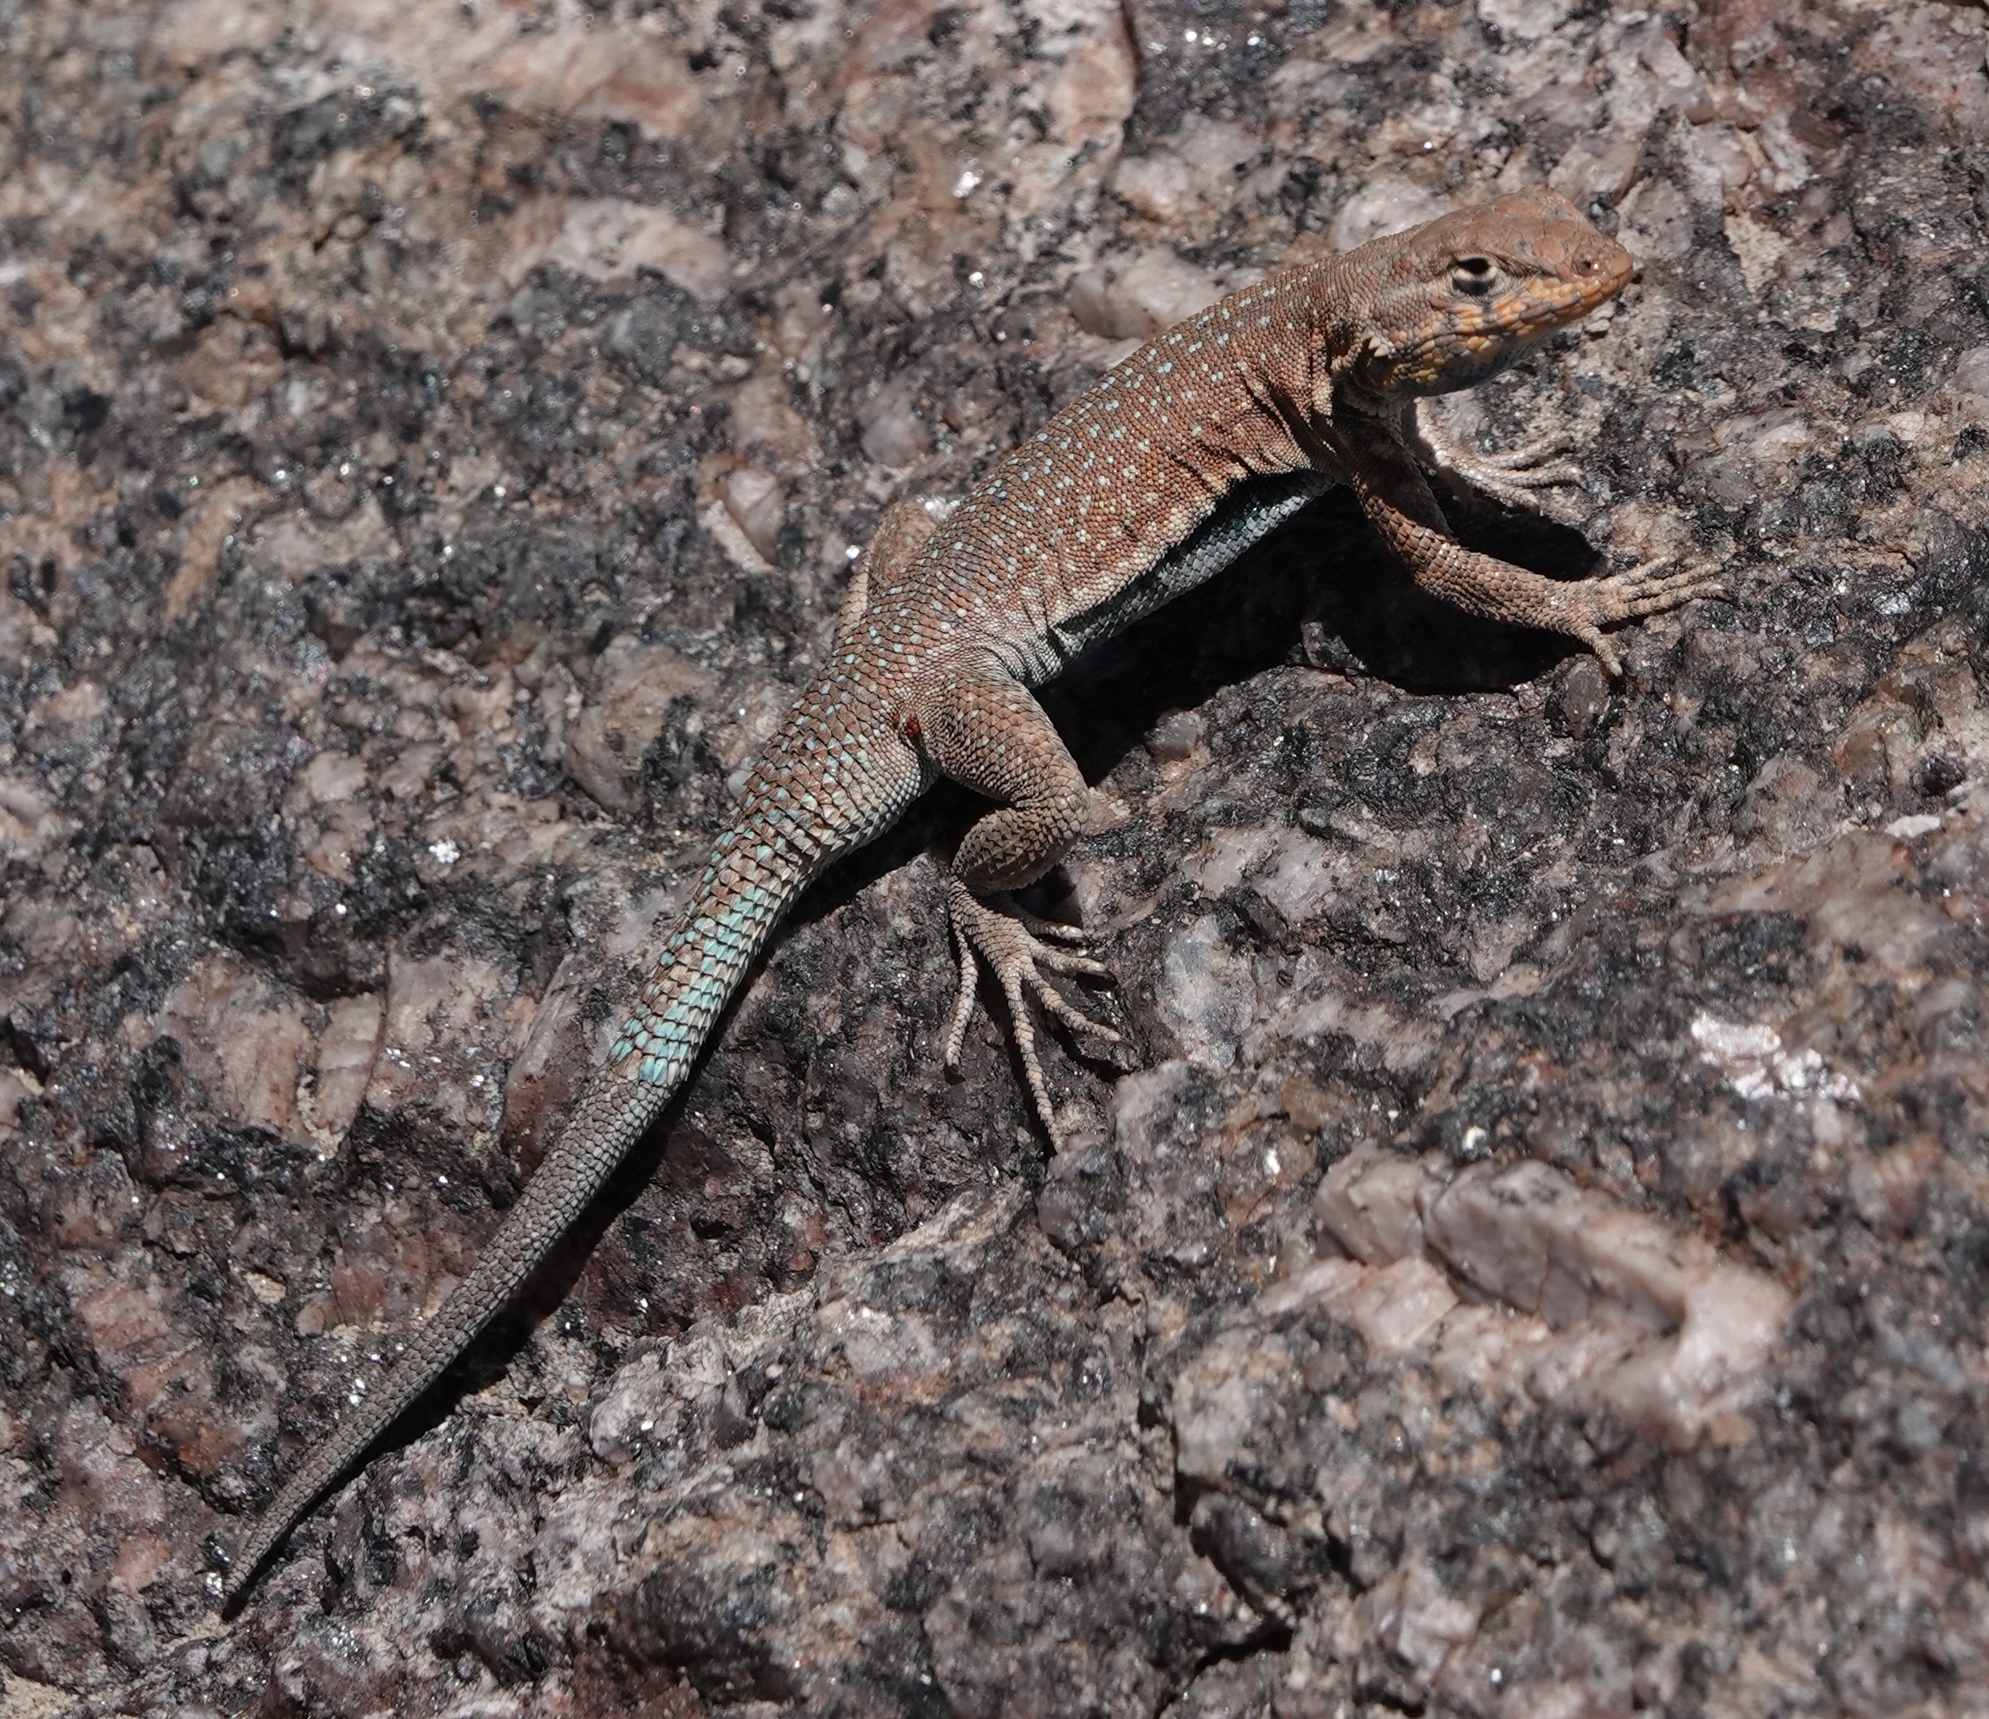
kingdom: Animalia
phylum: Chordata
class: Squamata
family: Phrynosomatidae
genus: Uta
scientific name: Uta stansburiana
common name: Side-blotched lizard
